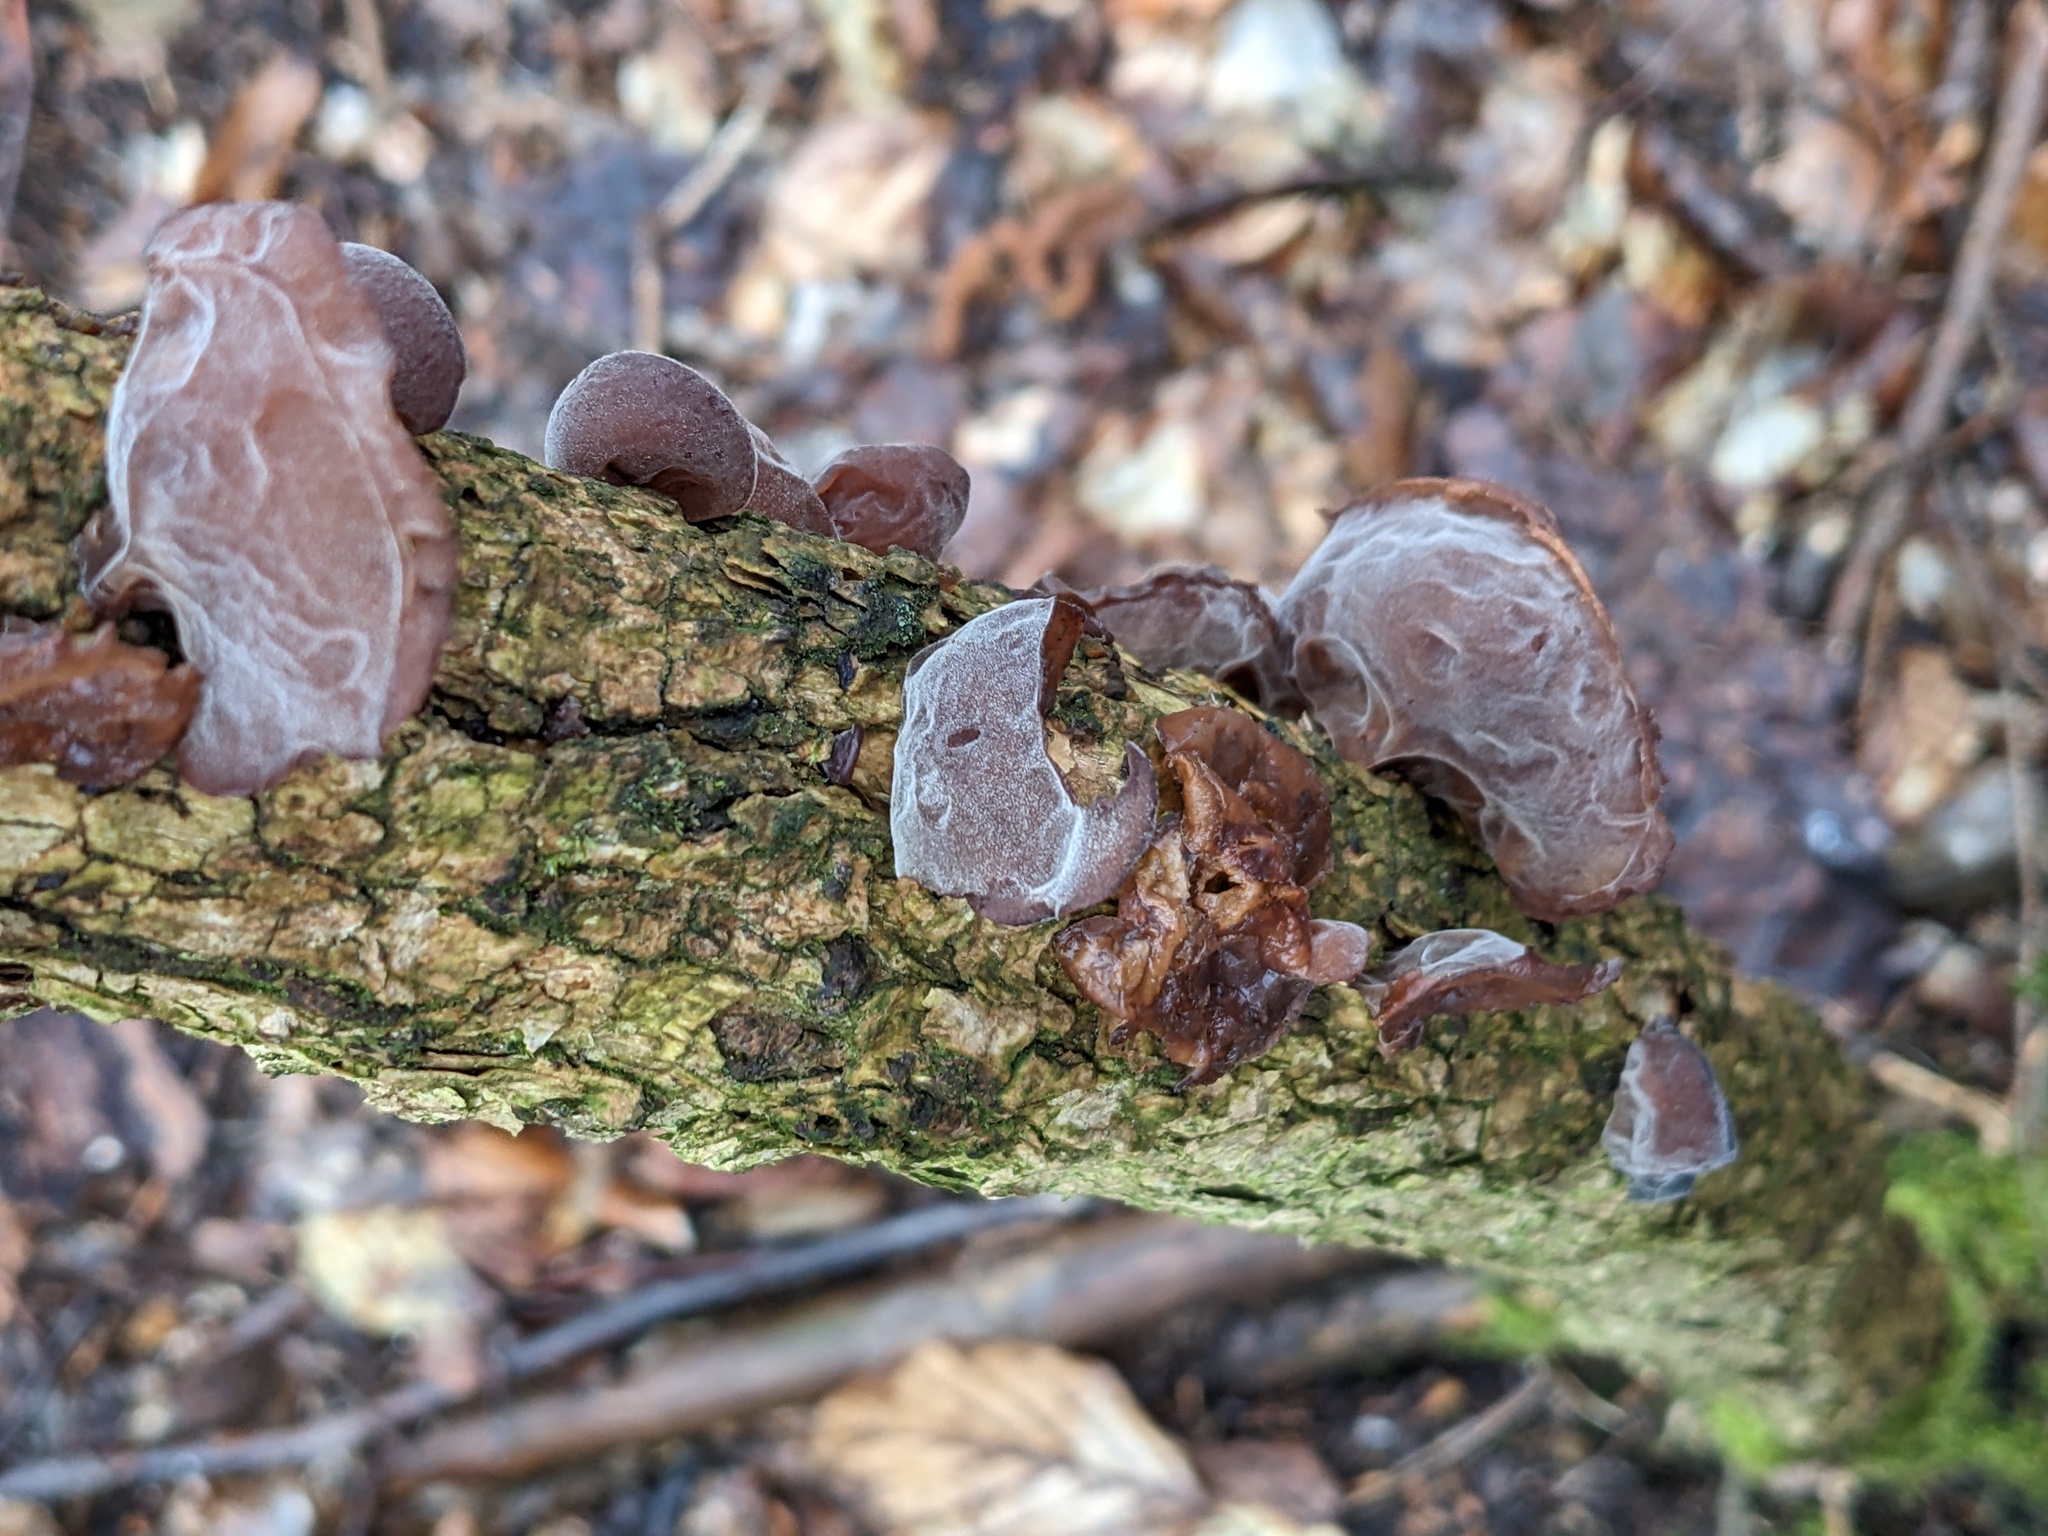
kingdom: Fungi
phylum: Basidiomycota
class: Agaricomycetes
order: Auriculariales
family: Auriculariaceae
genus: Auricularia
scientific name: Auricularia auricula-judae
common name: Jelly ear
